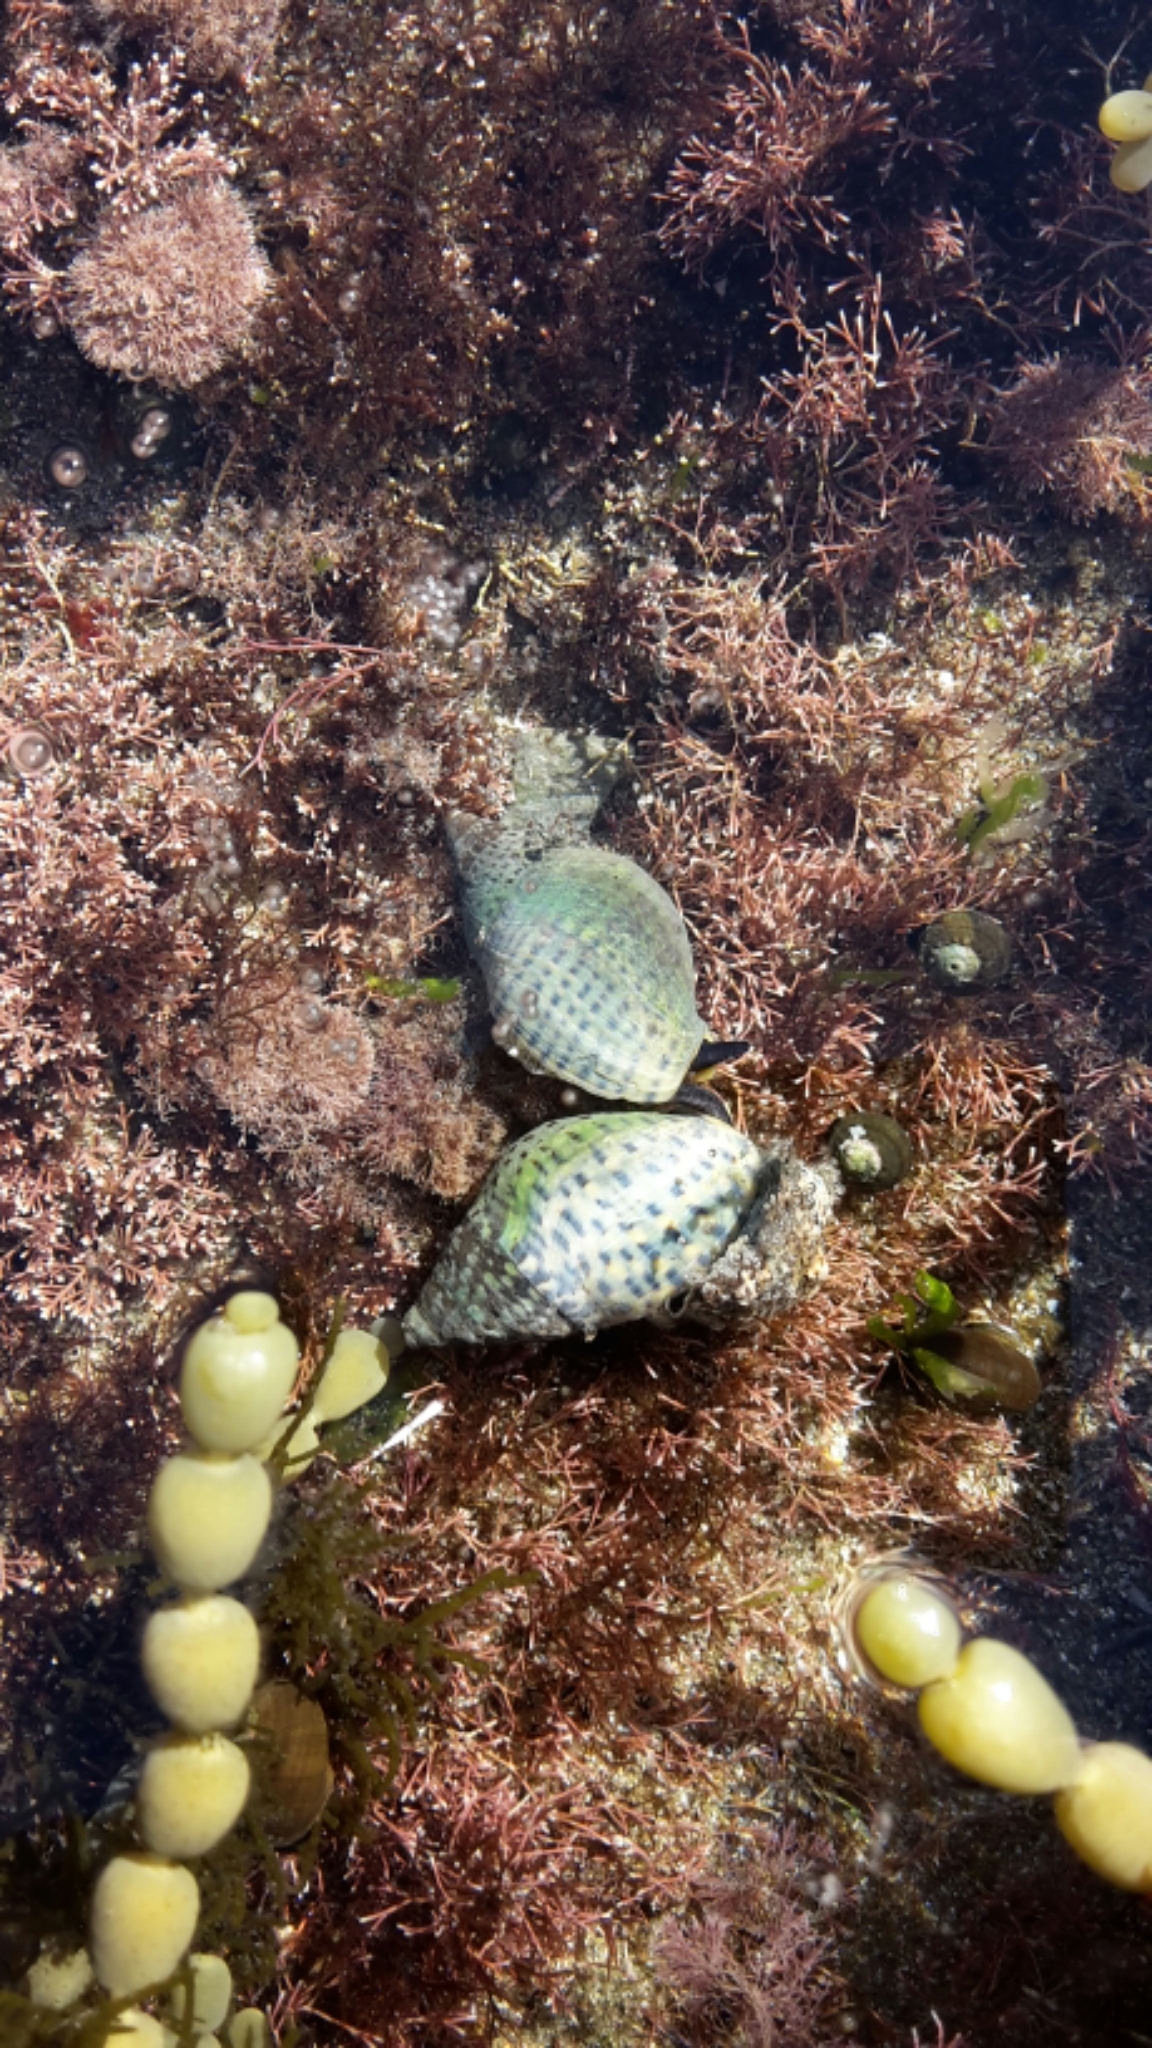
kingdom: Animalia
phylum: Mollusca
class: Gastropoda
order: Neogastropoda
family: Cominellidae
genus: Cominella
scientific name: Cominella maculosa
